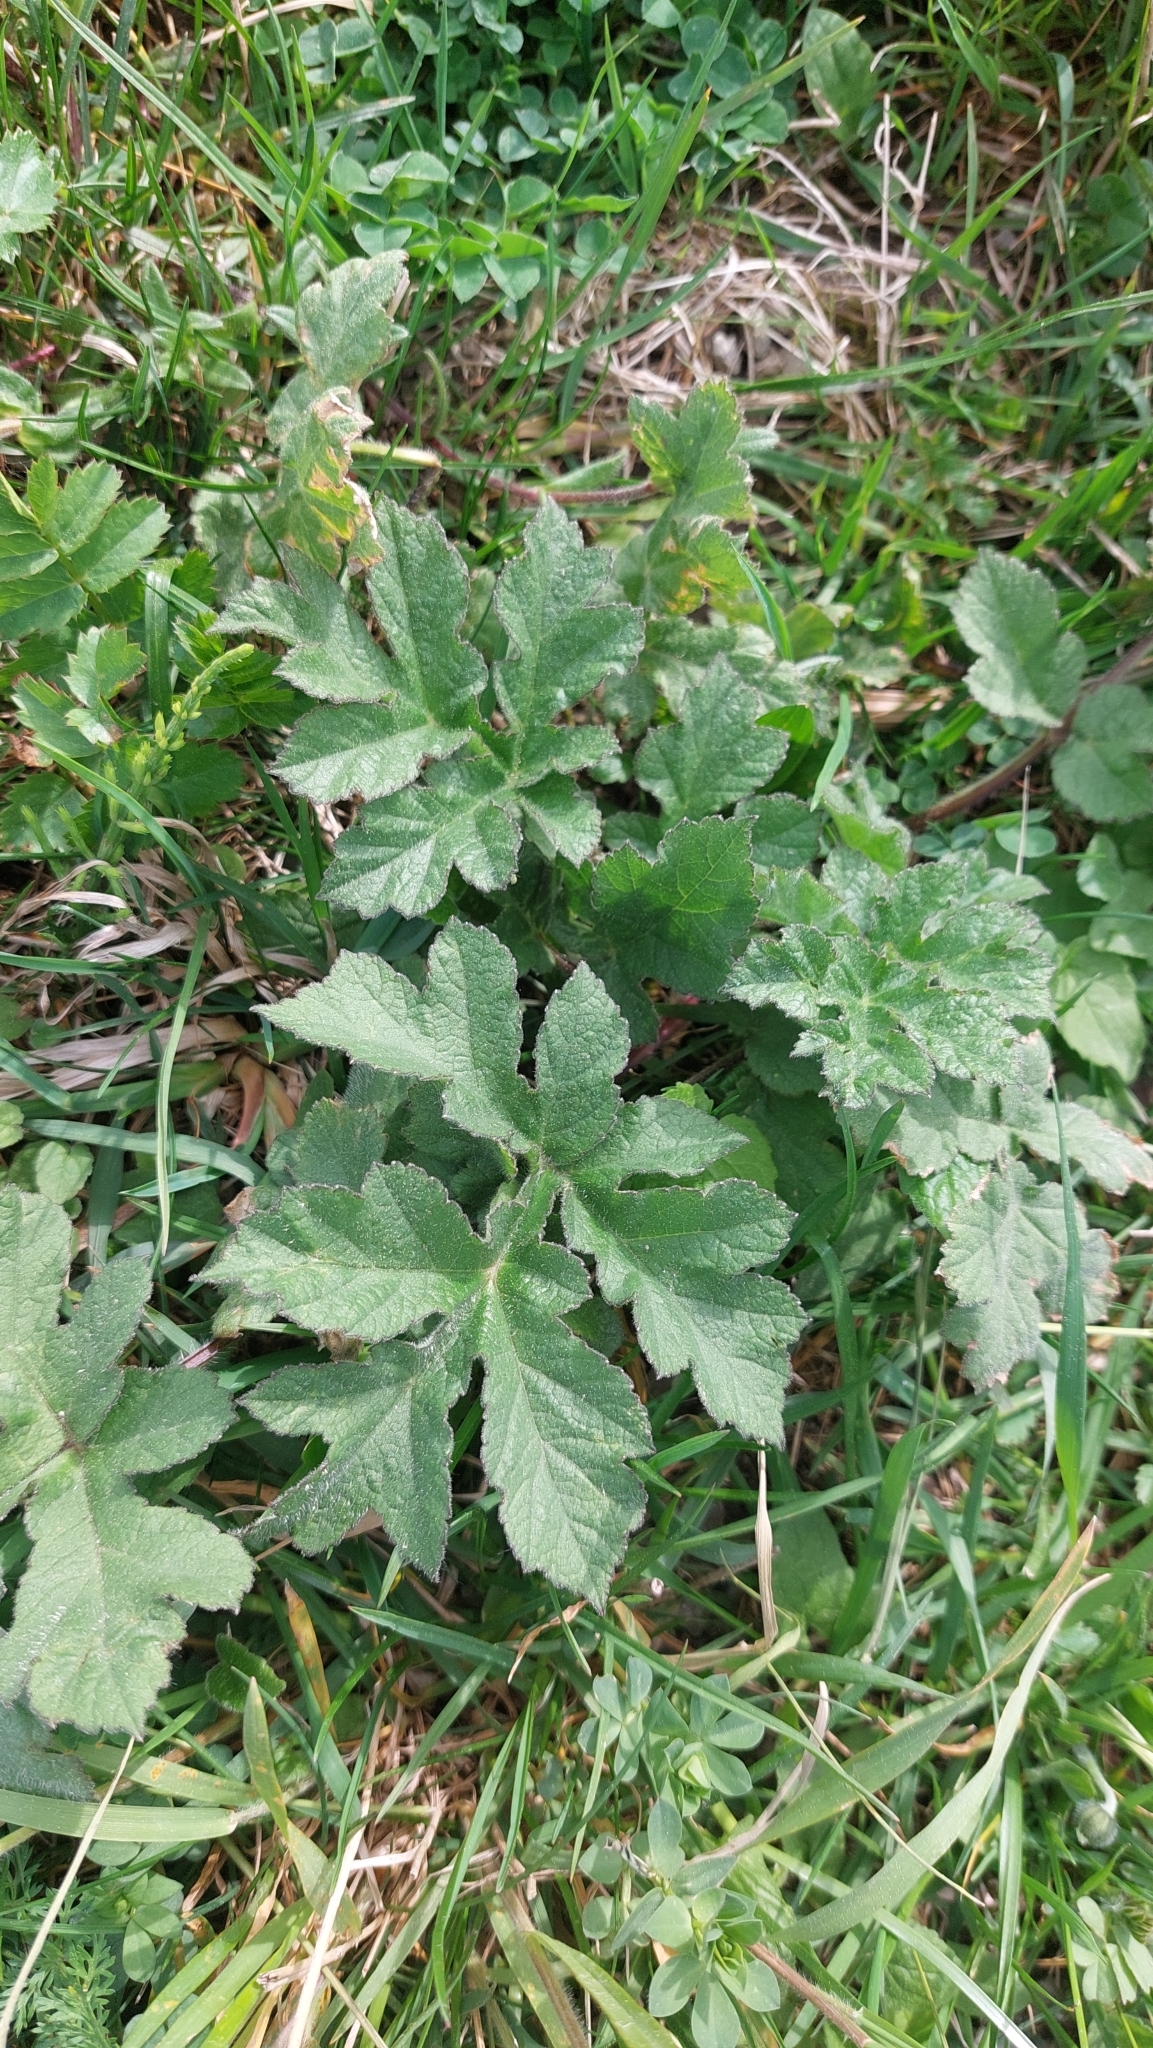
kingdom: Plantae
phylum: Tracheophyta
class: Magnoliopsida
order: Apiales
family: Apiaceae
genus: Heracleum
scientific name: Heracleum sphondylium
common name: Hogweed
